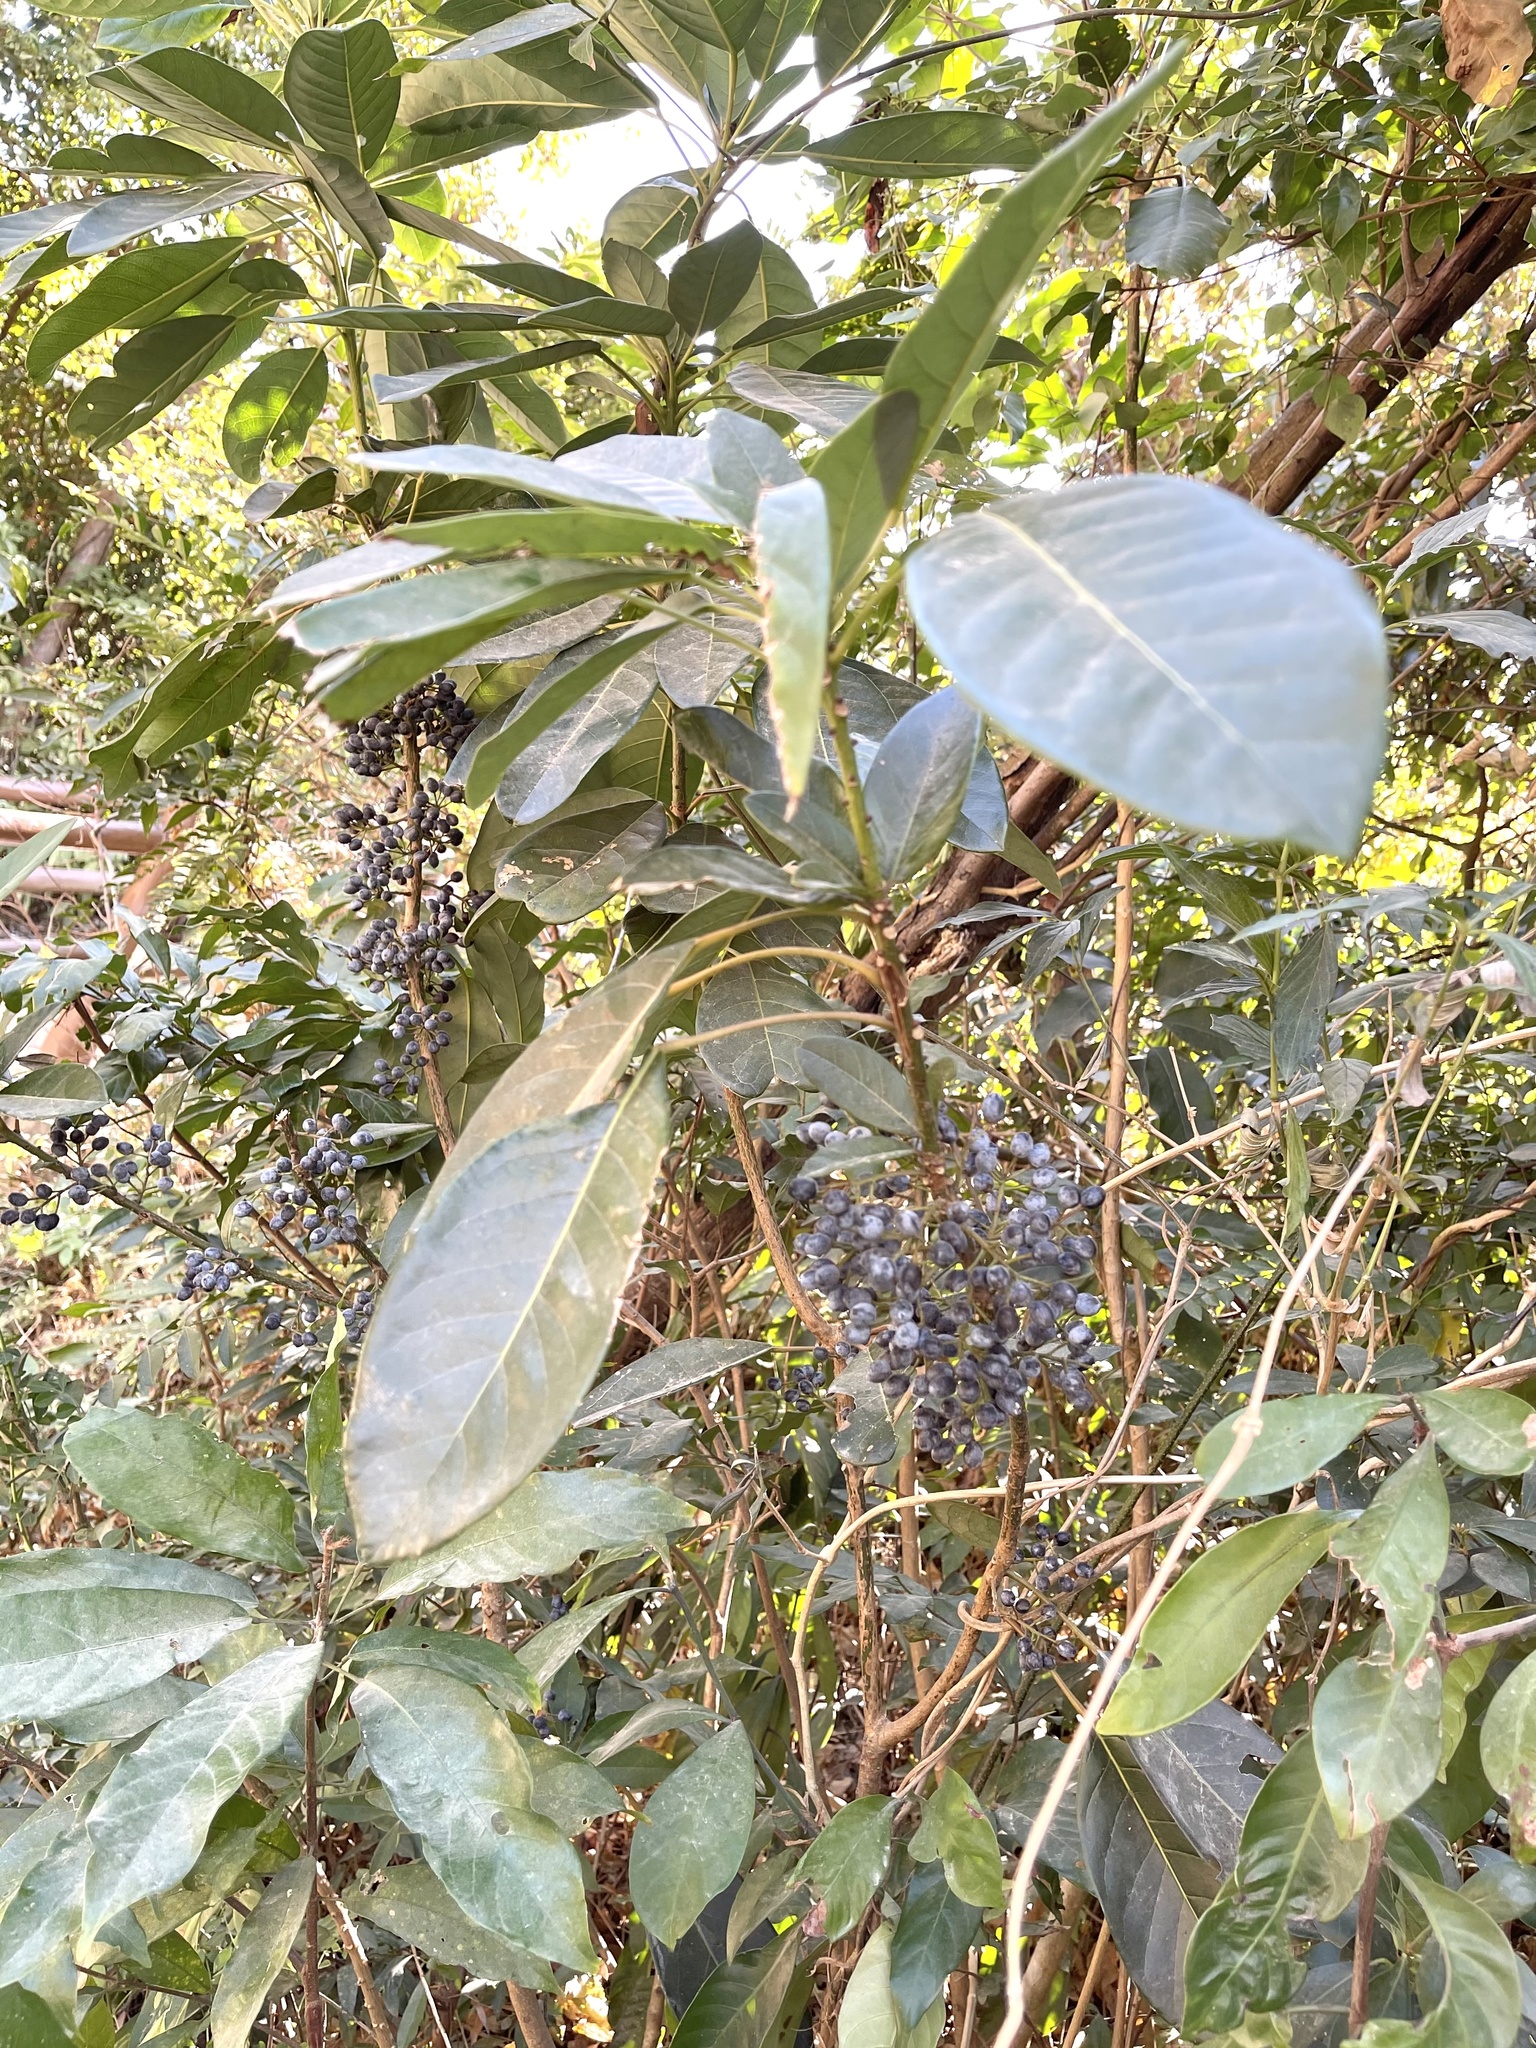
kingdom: Plantae
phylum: Tracheophyta
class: Magnoliopsida
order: Saxifragales
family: Daphniphyllaceae
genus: Daphniphyllum
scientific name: Daphniphyllum calycinum
